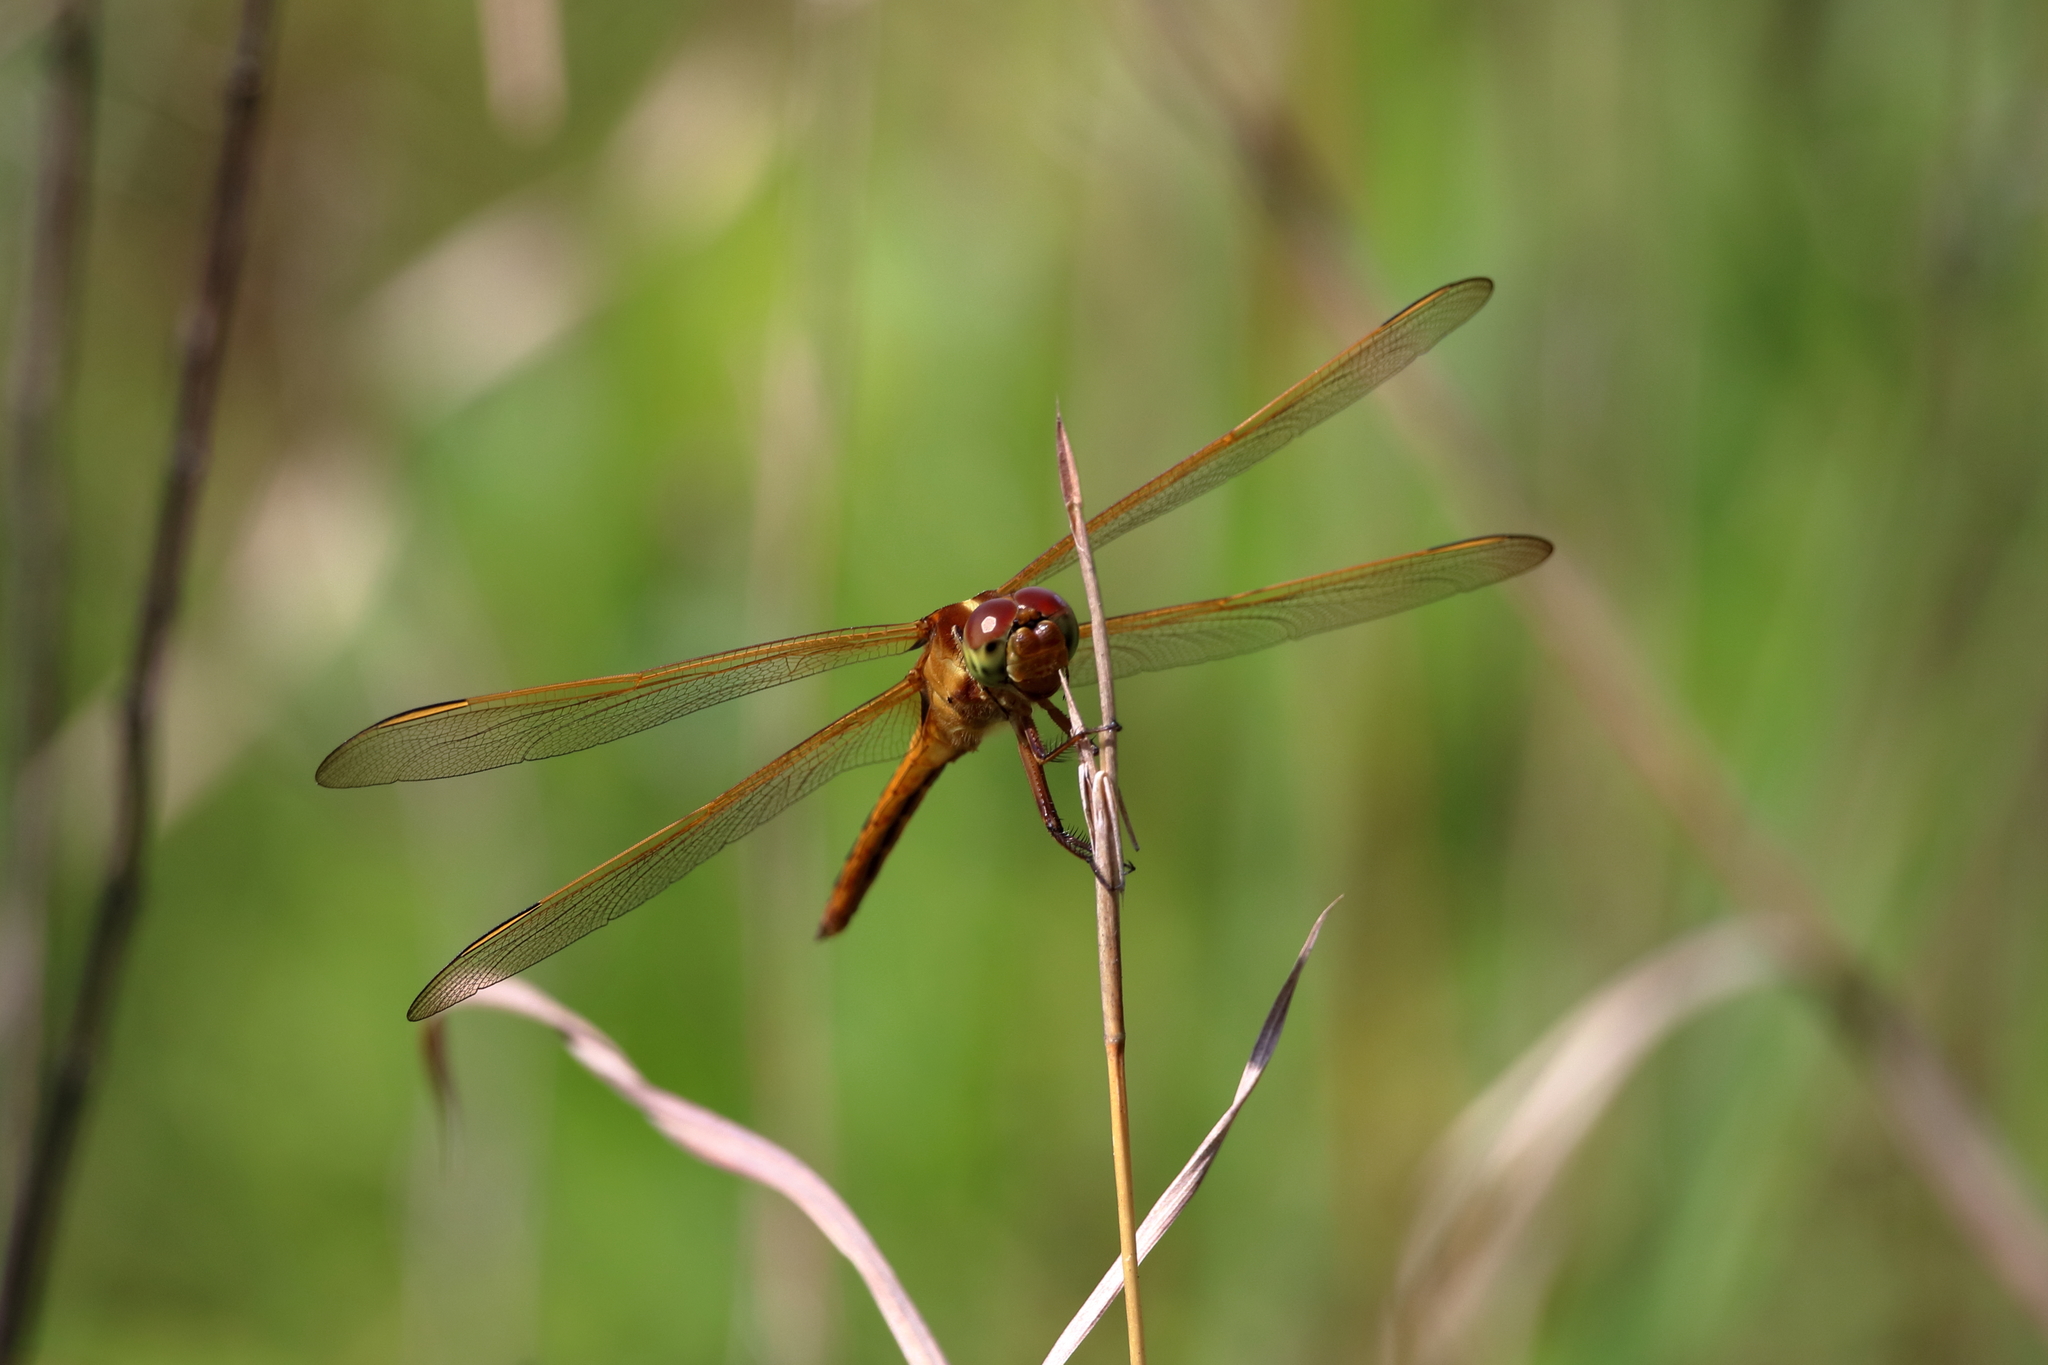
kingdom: Animalia
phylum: Arthropoda
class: Insecta
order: Odonata
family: Libellulidae
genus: Libellula
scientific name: Libellula needhami
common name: Needham's skimmer
